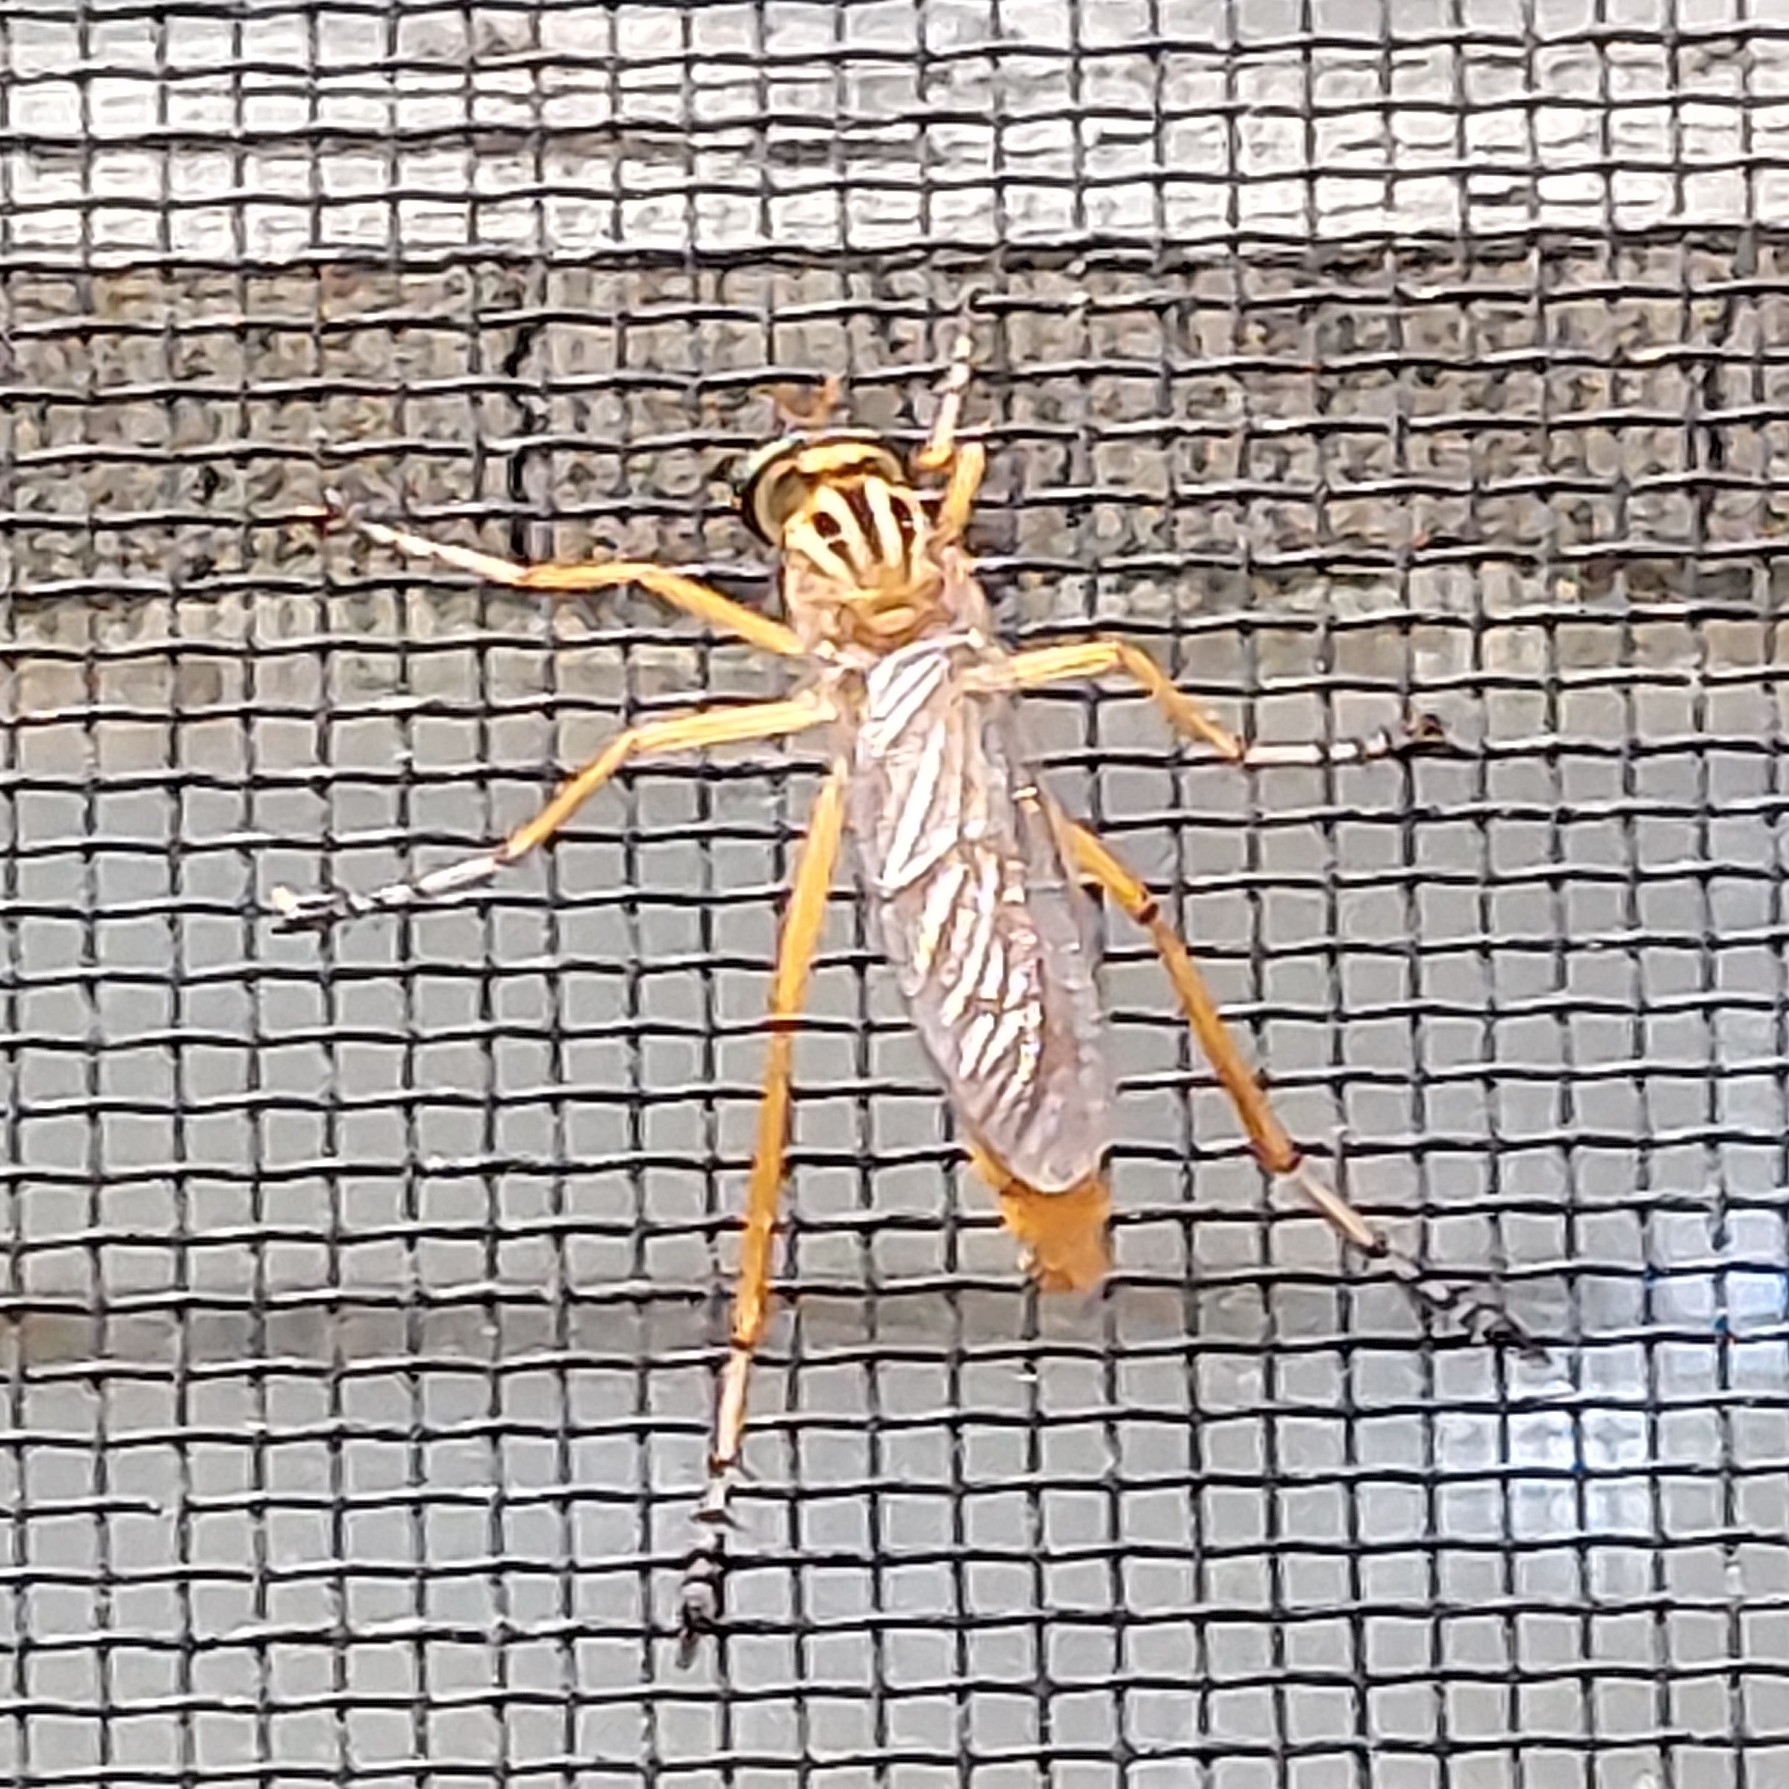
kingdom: Animalia
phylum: Arthropoda
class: Insecta
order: Diptera
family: Asilidae
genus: Diogmites
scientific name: Diogmites neoternatus
